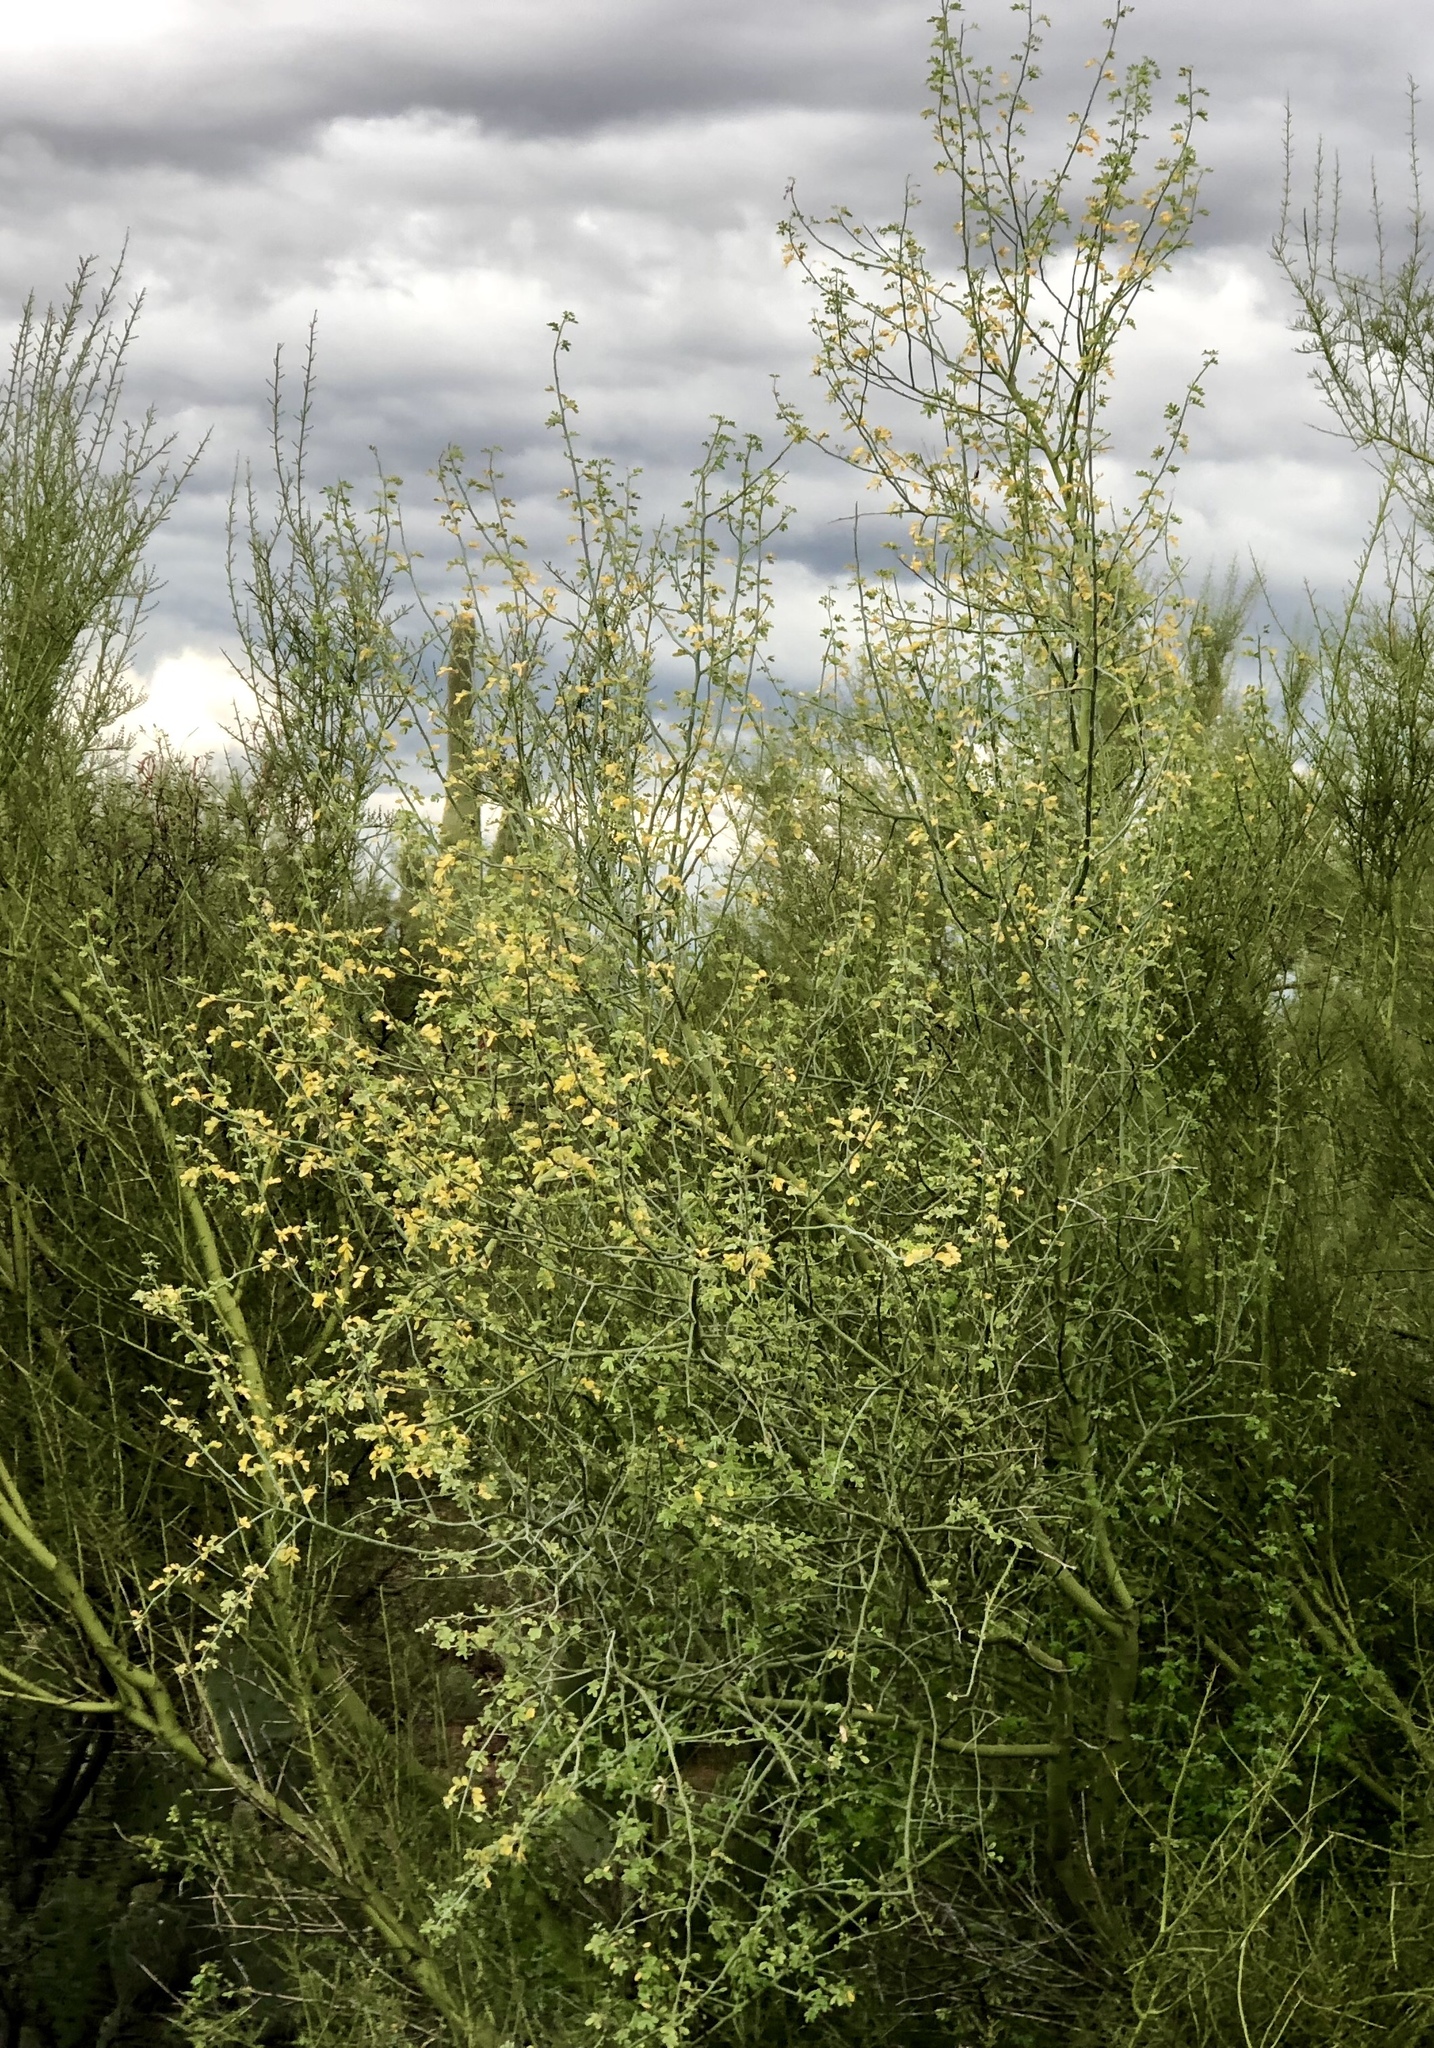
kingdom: Plantae
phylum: Tracheophyta
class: Magnoliopsida
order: Fabales
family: Fabaceae
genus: Parkinsonia
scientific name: Parkinsonia florida
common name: Blue paloverde
